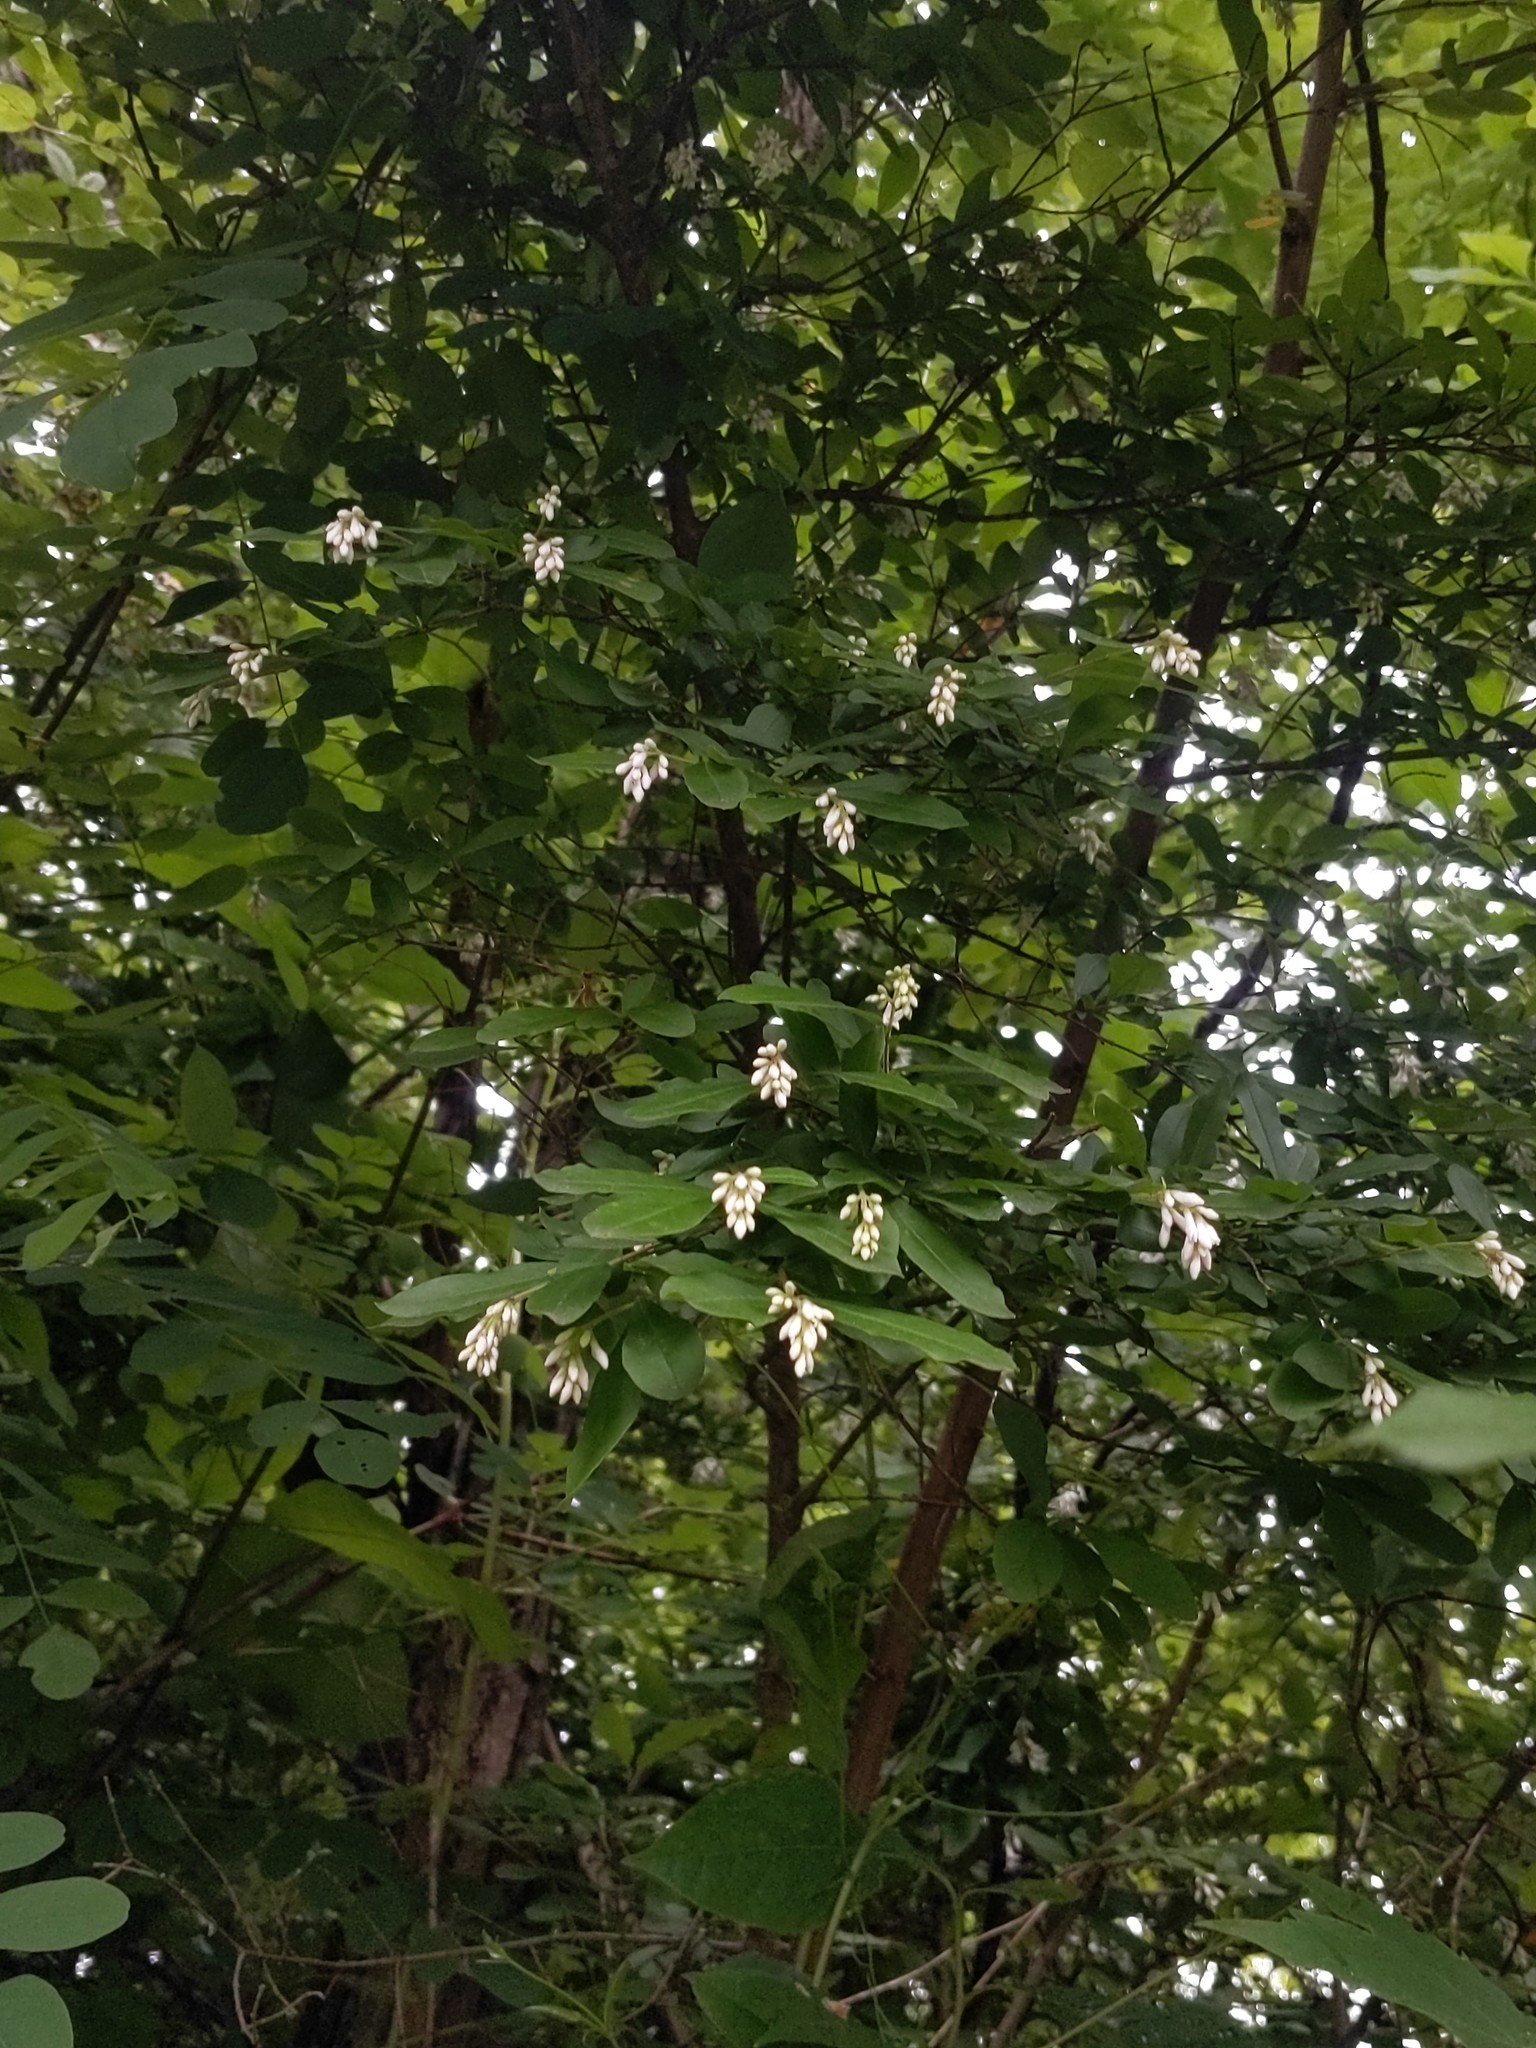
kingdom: Plantae
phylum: Tracheophyta
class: Magnoliopsida
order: Lamiales
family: Oleaceae
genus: Ligustrum
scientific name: Ligustrum obtusifolium
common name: Border privet
